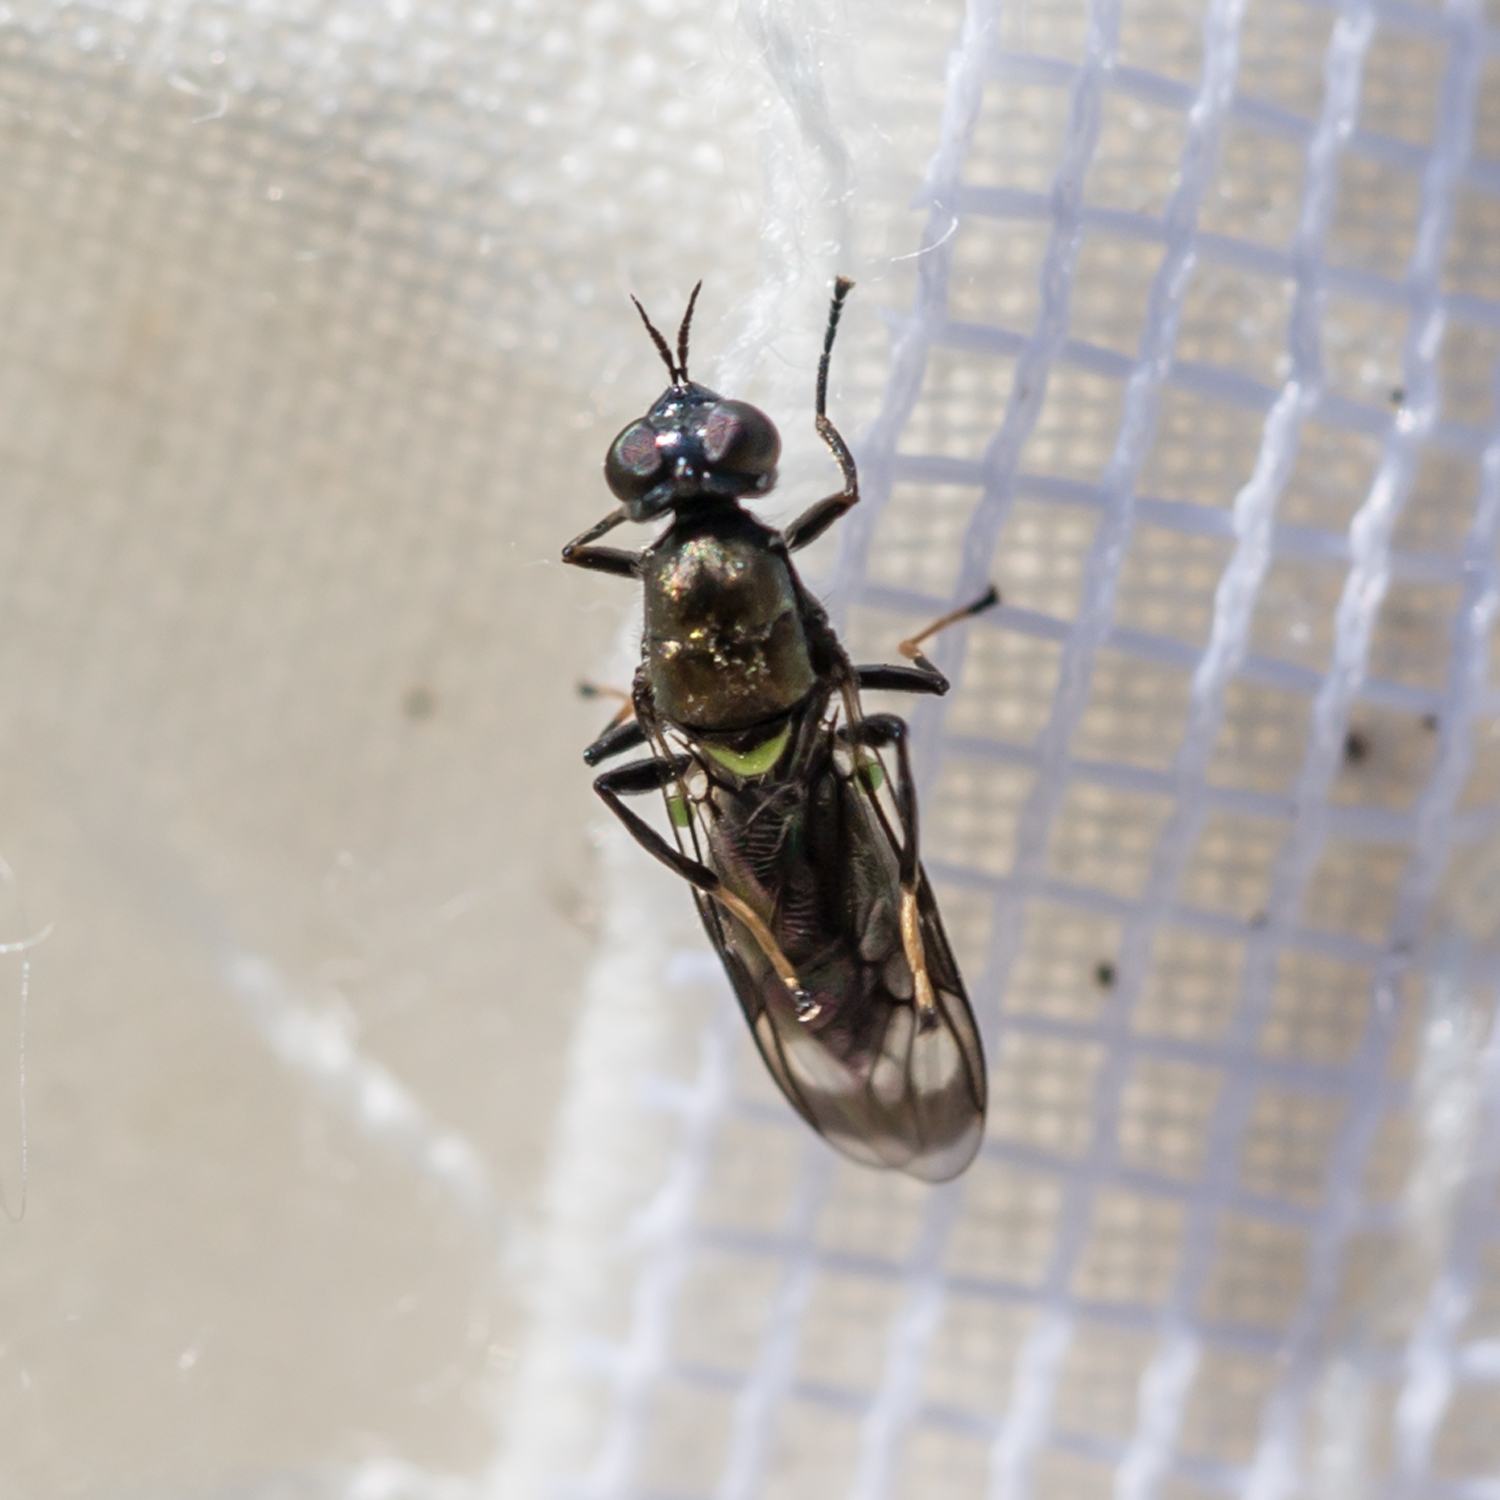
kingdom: Animalia
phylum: Arthropoda
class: Insecta
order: Diptera
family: Stratiomyidae
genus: Myxosargus
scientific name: Myxosargus nigricormis
